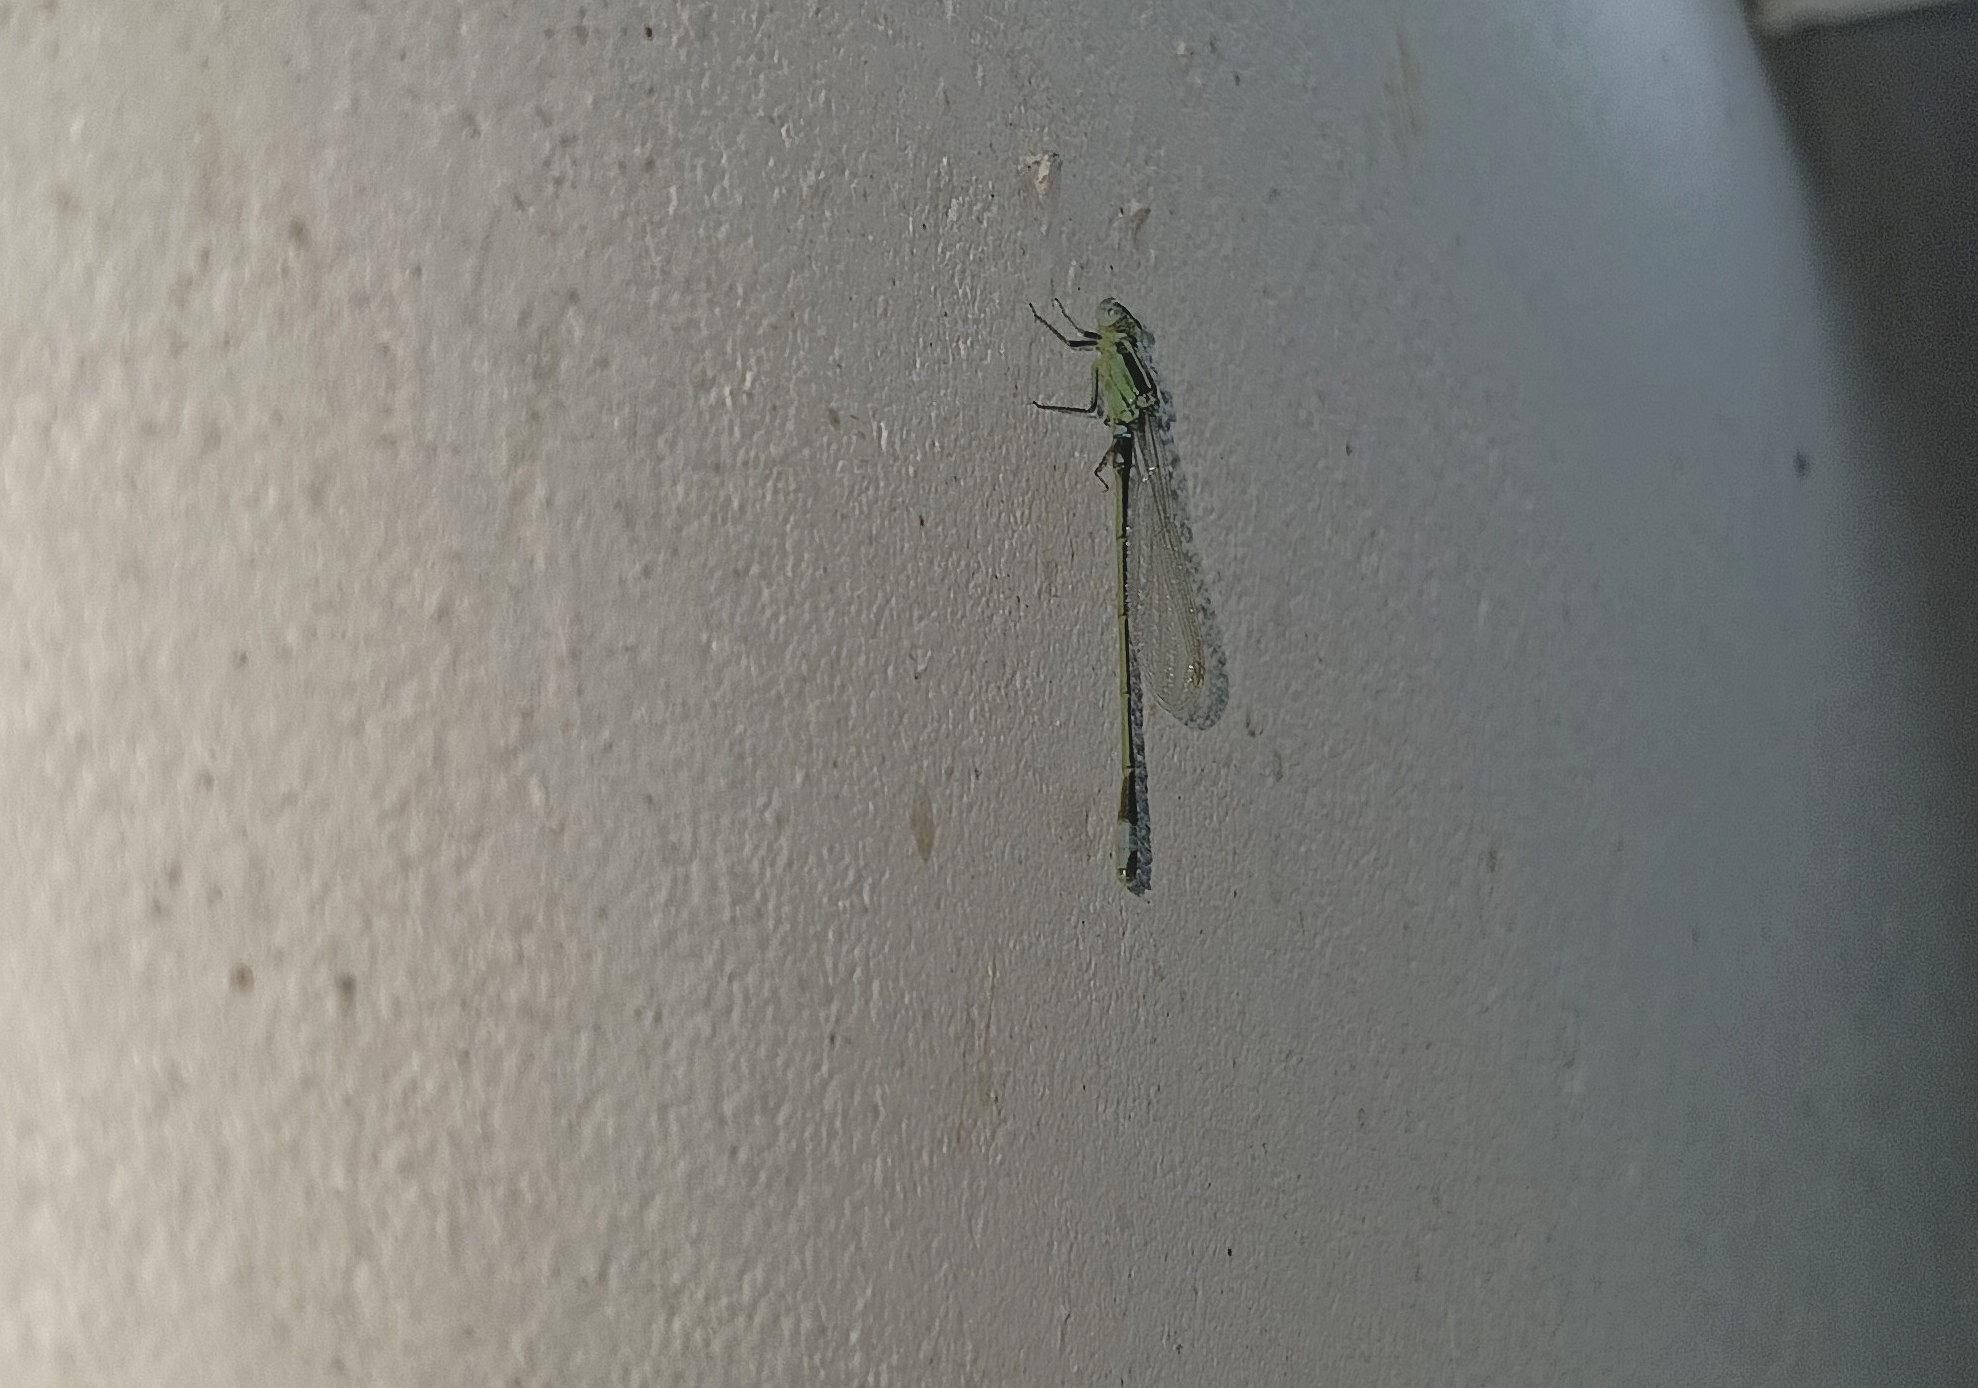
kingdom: Animalia
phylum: Arthropoda
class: Insecta
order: Odonata
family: Coenagrionidae
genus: Ischnura
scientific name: Ischnura senegalensis
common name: Tropical bluetail
